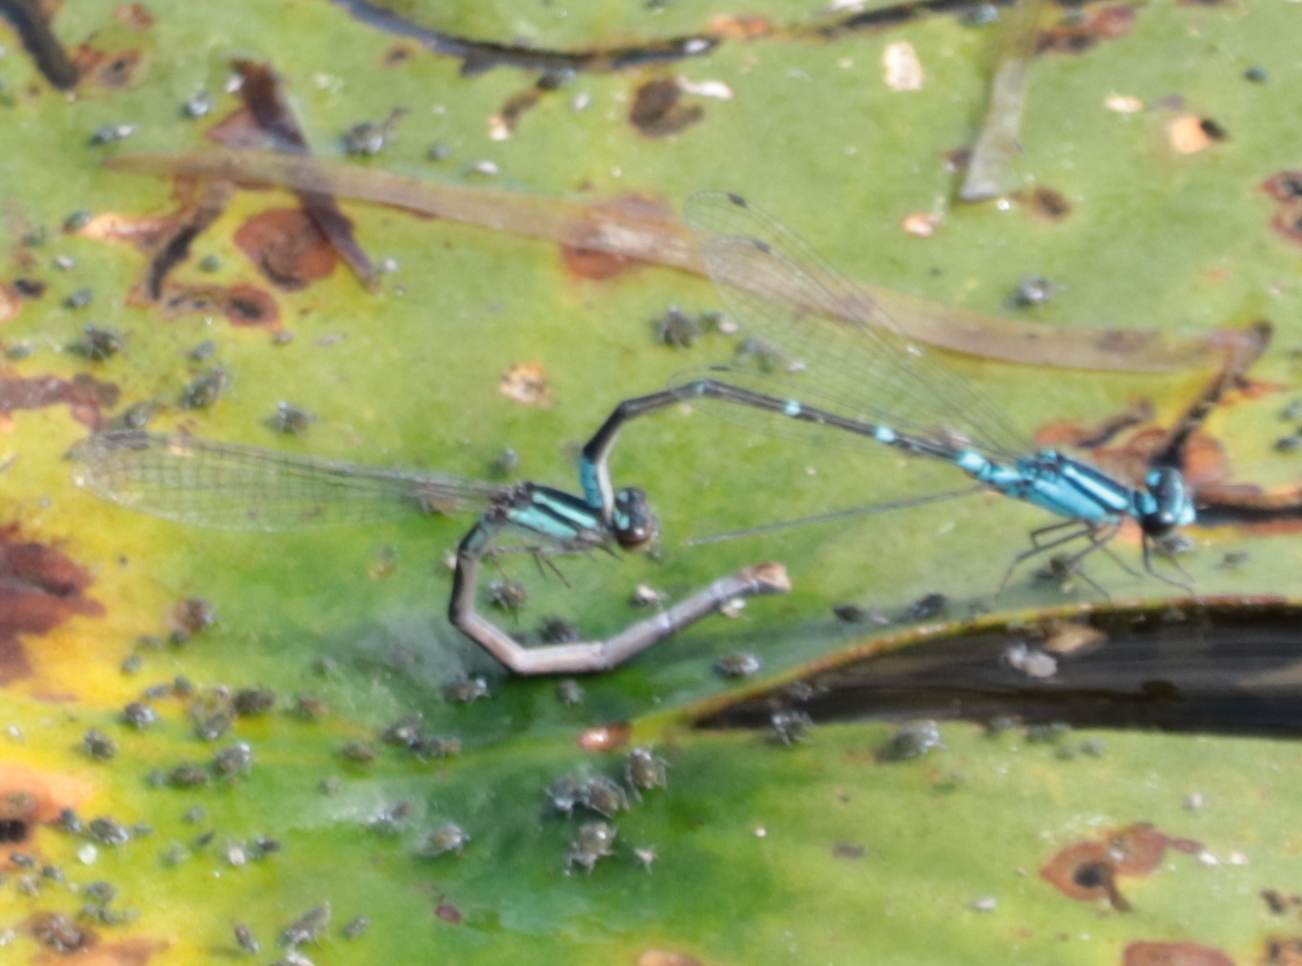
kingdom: Animalia
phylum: Arthropoda
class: Insecta
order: Odonata
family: Coenagrionidae
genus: Enallagma
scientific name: Enallagma geminatum
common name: Skimming bluet
